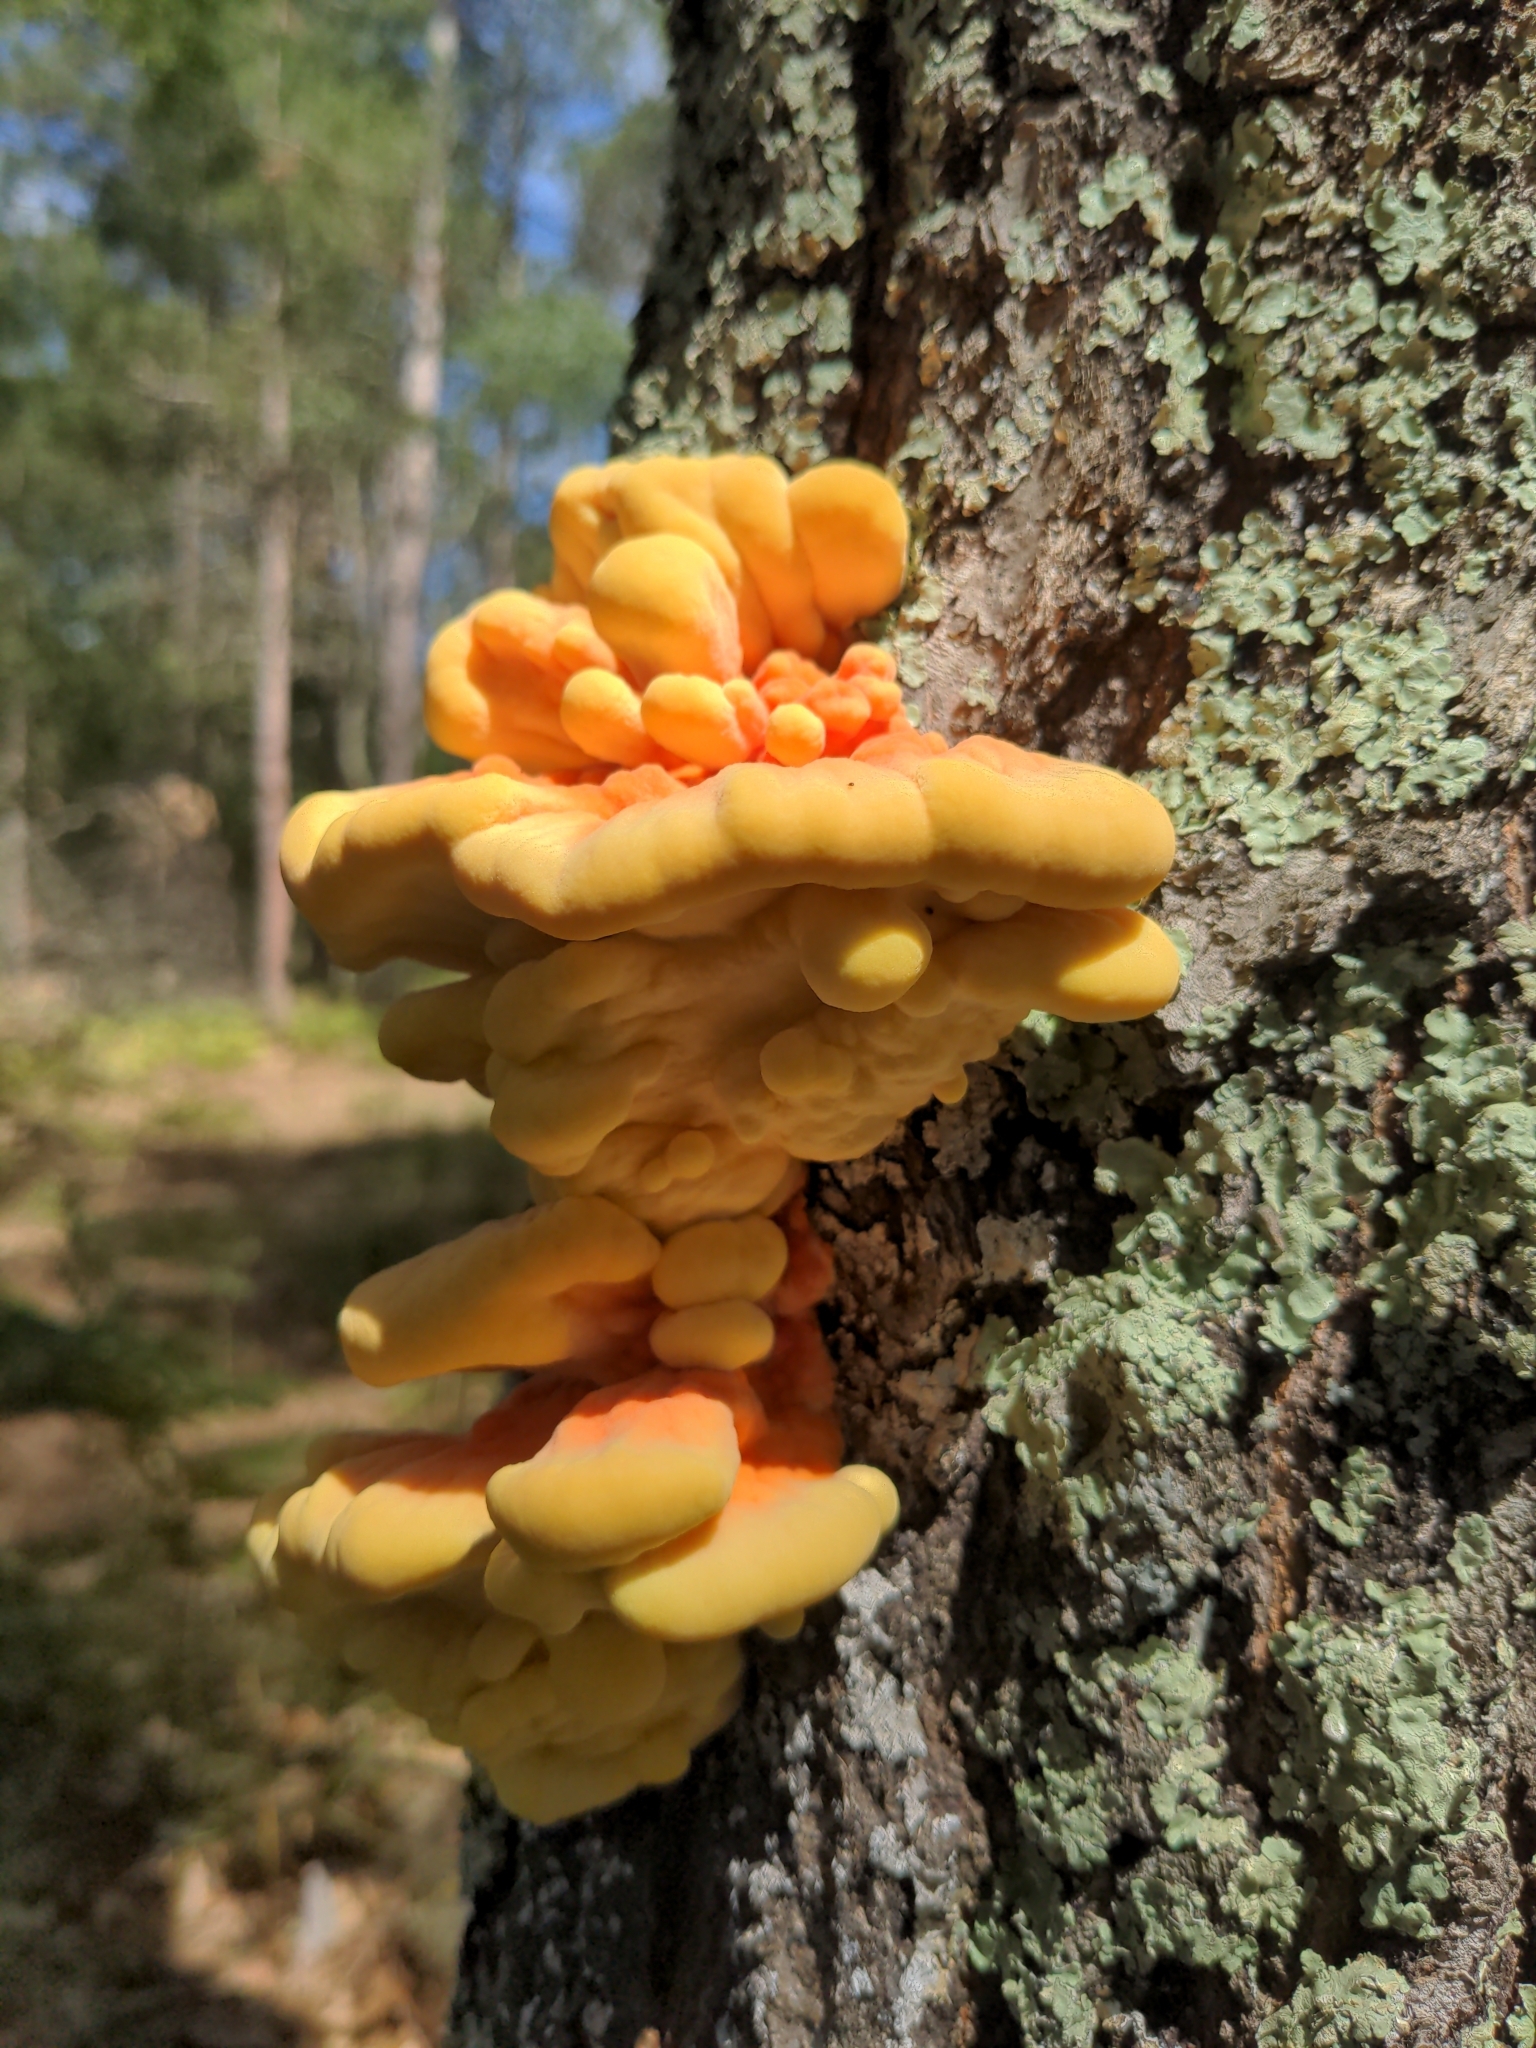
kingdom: Fungi
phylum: Basidiomycota
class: Agaricomycetes
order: Polyporales
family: Laetiporaceae
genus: Laetiporus
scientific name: Laetiporus sulphureus
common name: Chicken of the woods
